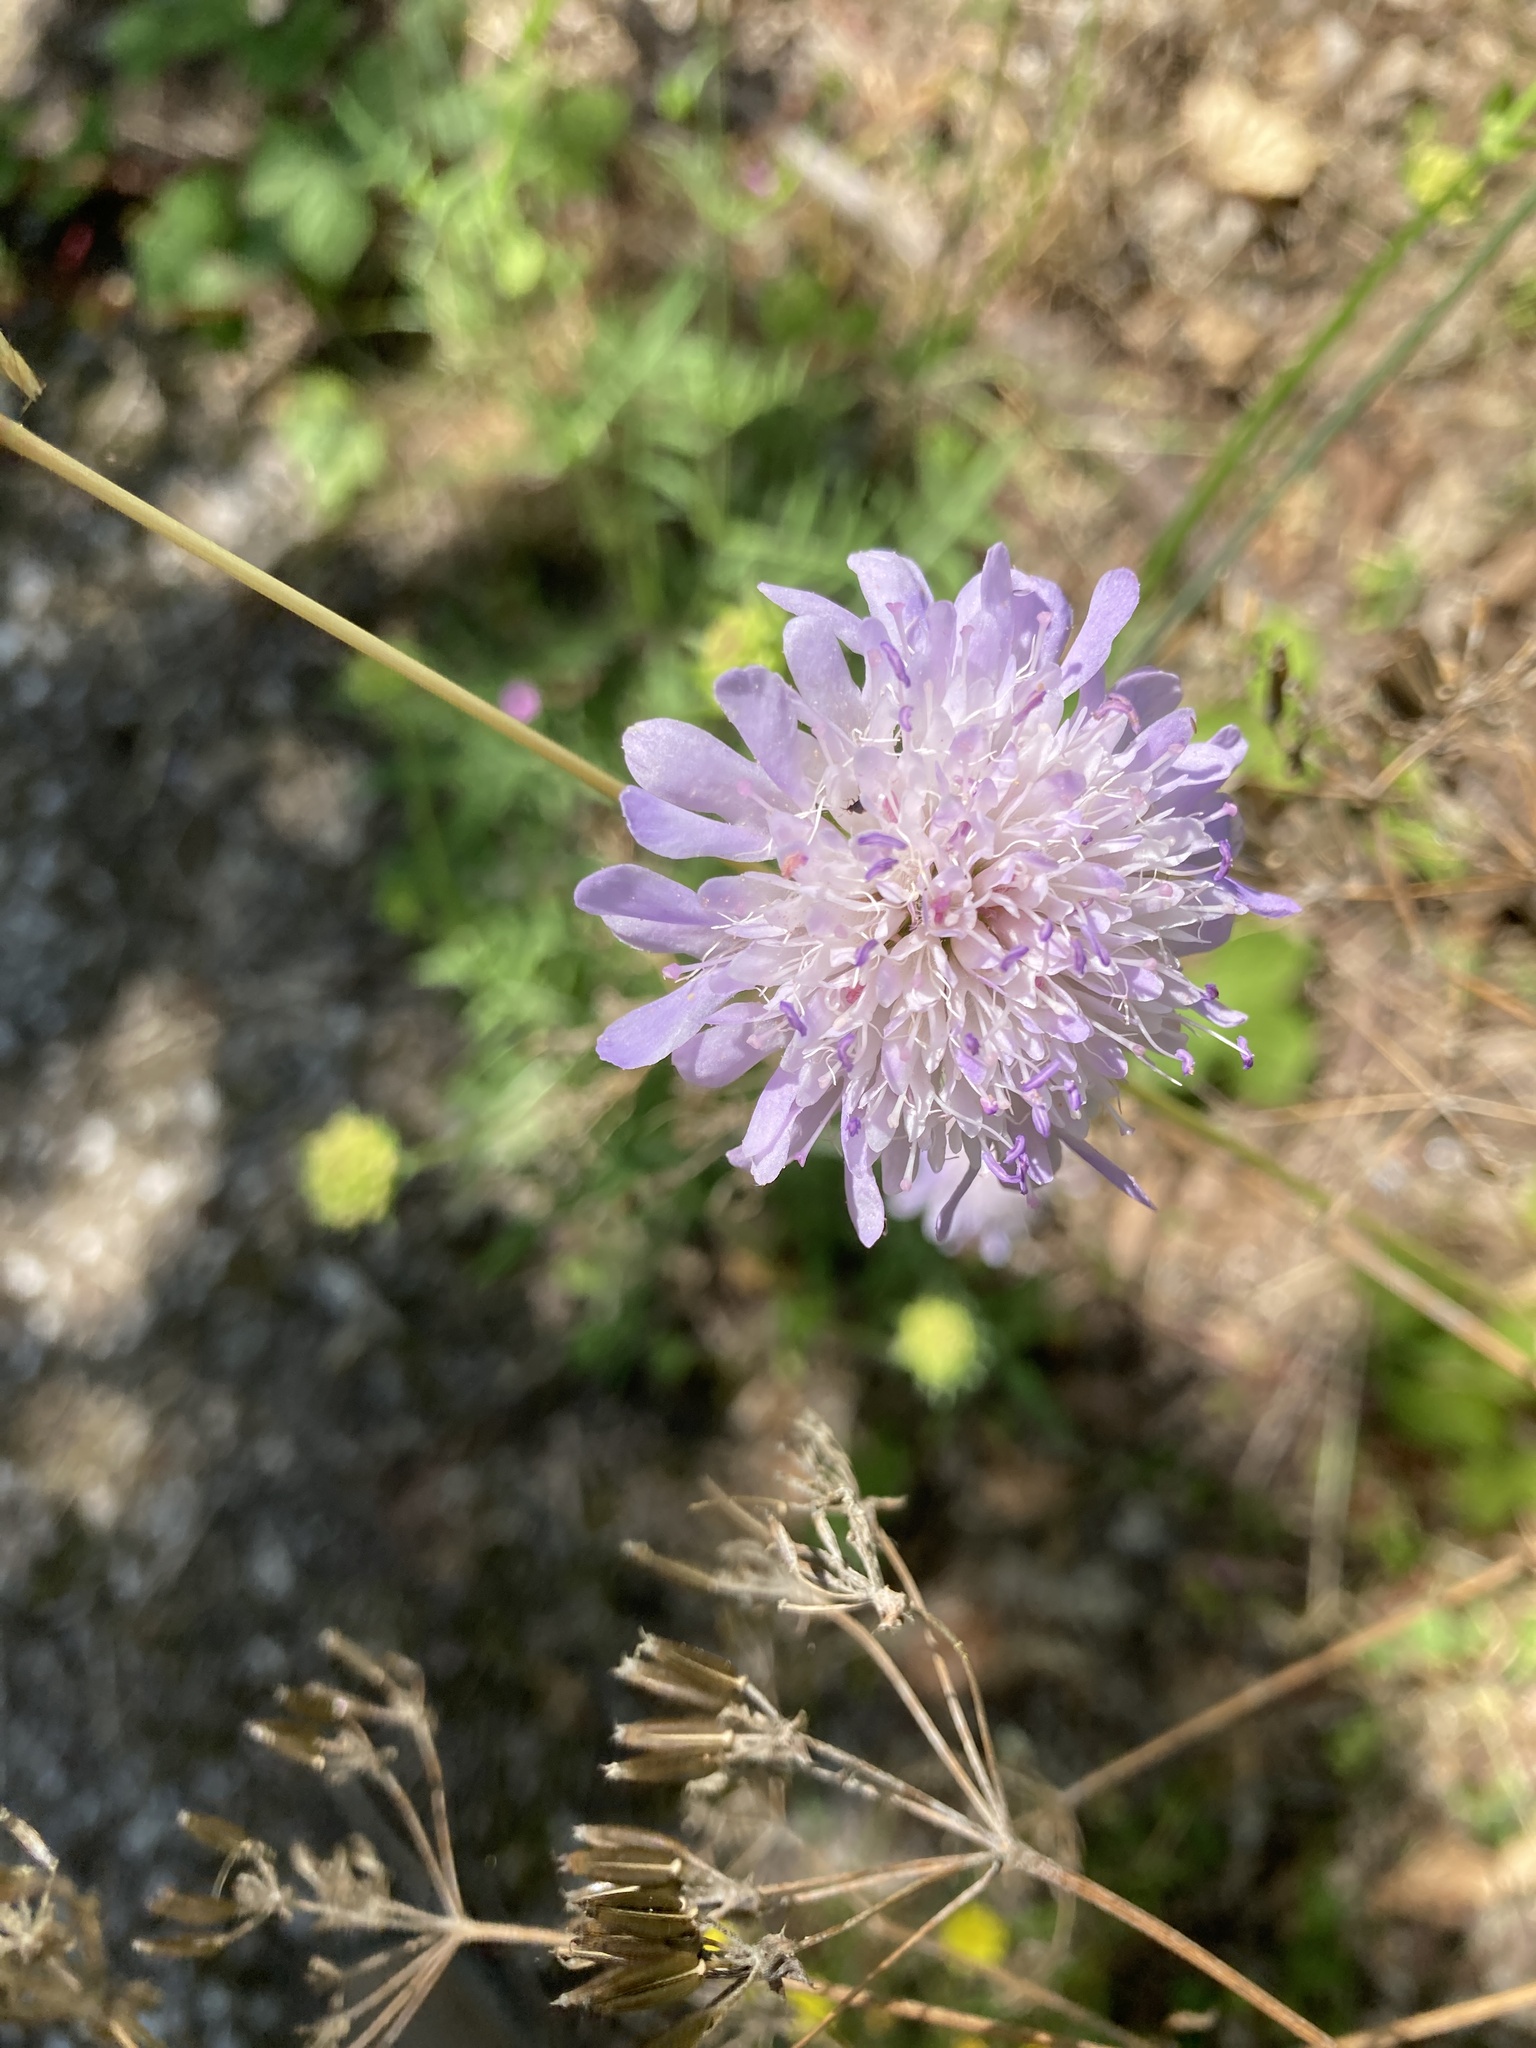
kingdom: Plantae
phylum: Tracheophyta
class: Magnoliopsida
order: Dipsacales
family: Caprifoliaceae
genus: Knautia
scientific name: Knautia arvensis
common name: Field scabiosa
